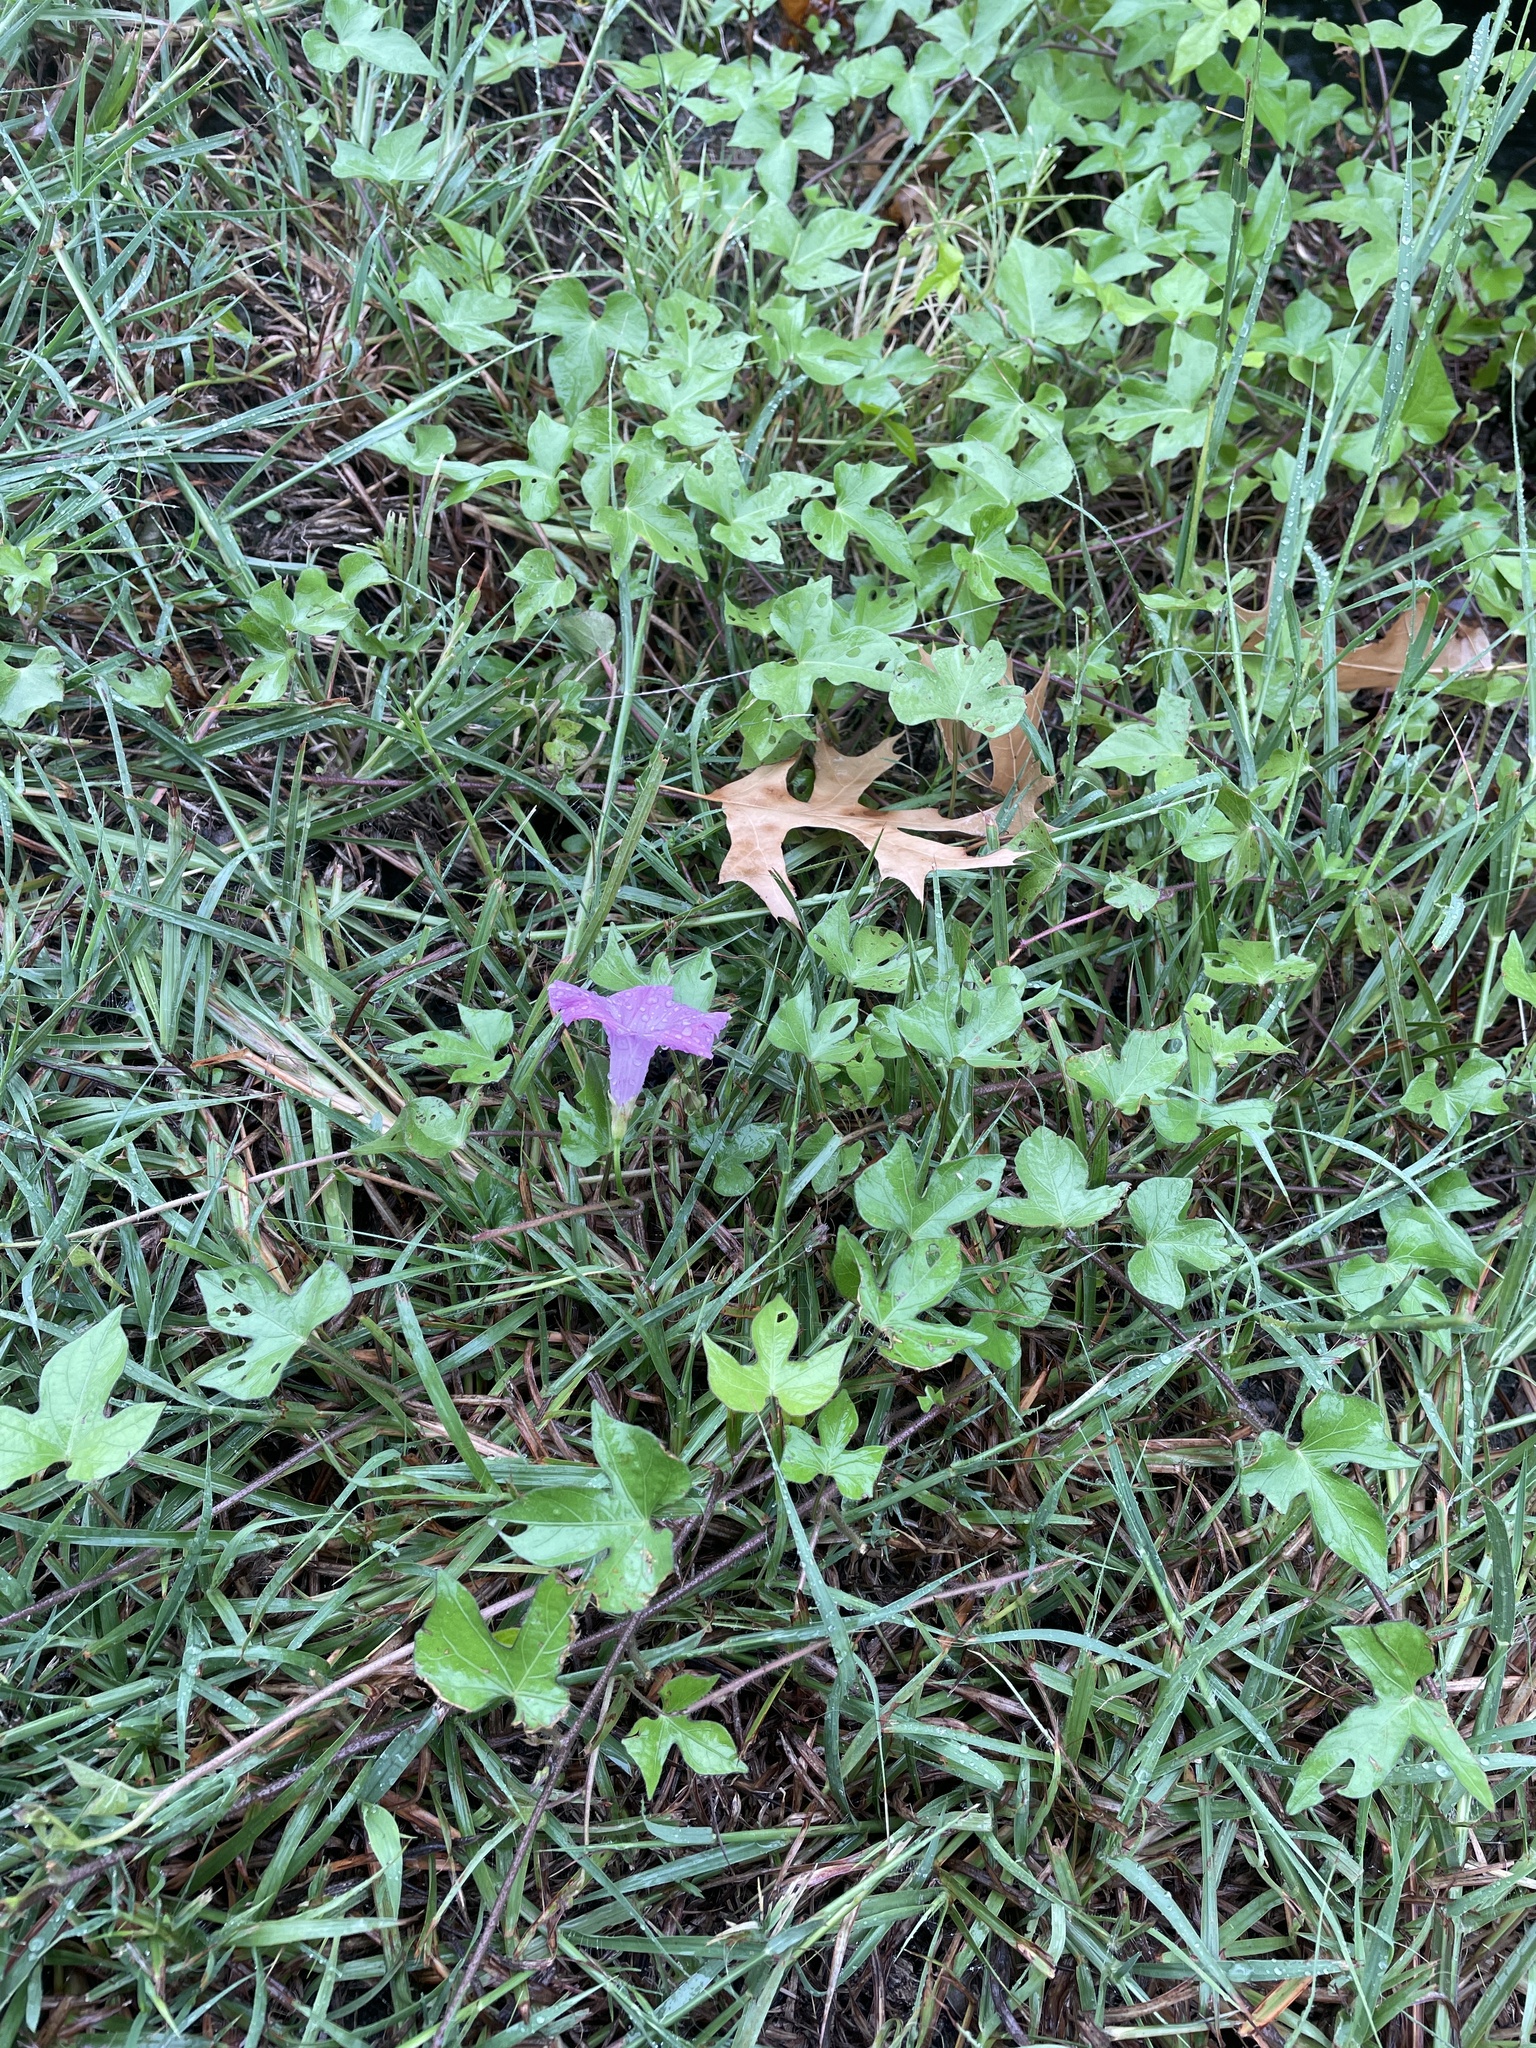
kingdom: Plantae
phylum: Tracheophyta
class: Magnoliopsida
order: Solanales
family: Convolvulaceae
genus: Ipomoea
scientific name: Ipomoea cordatotriloba
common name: Cotton morning glory
